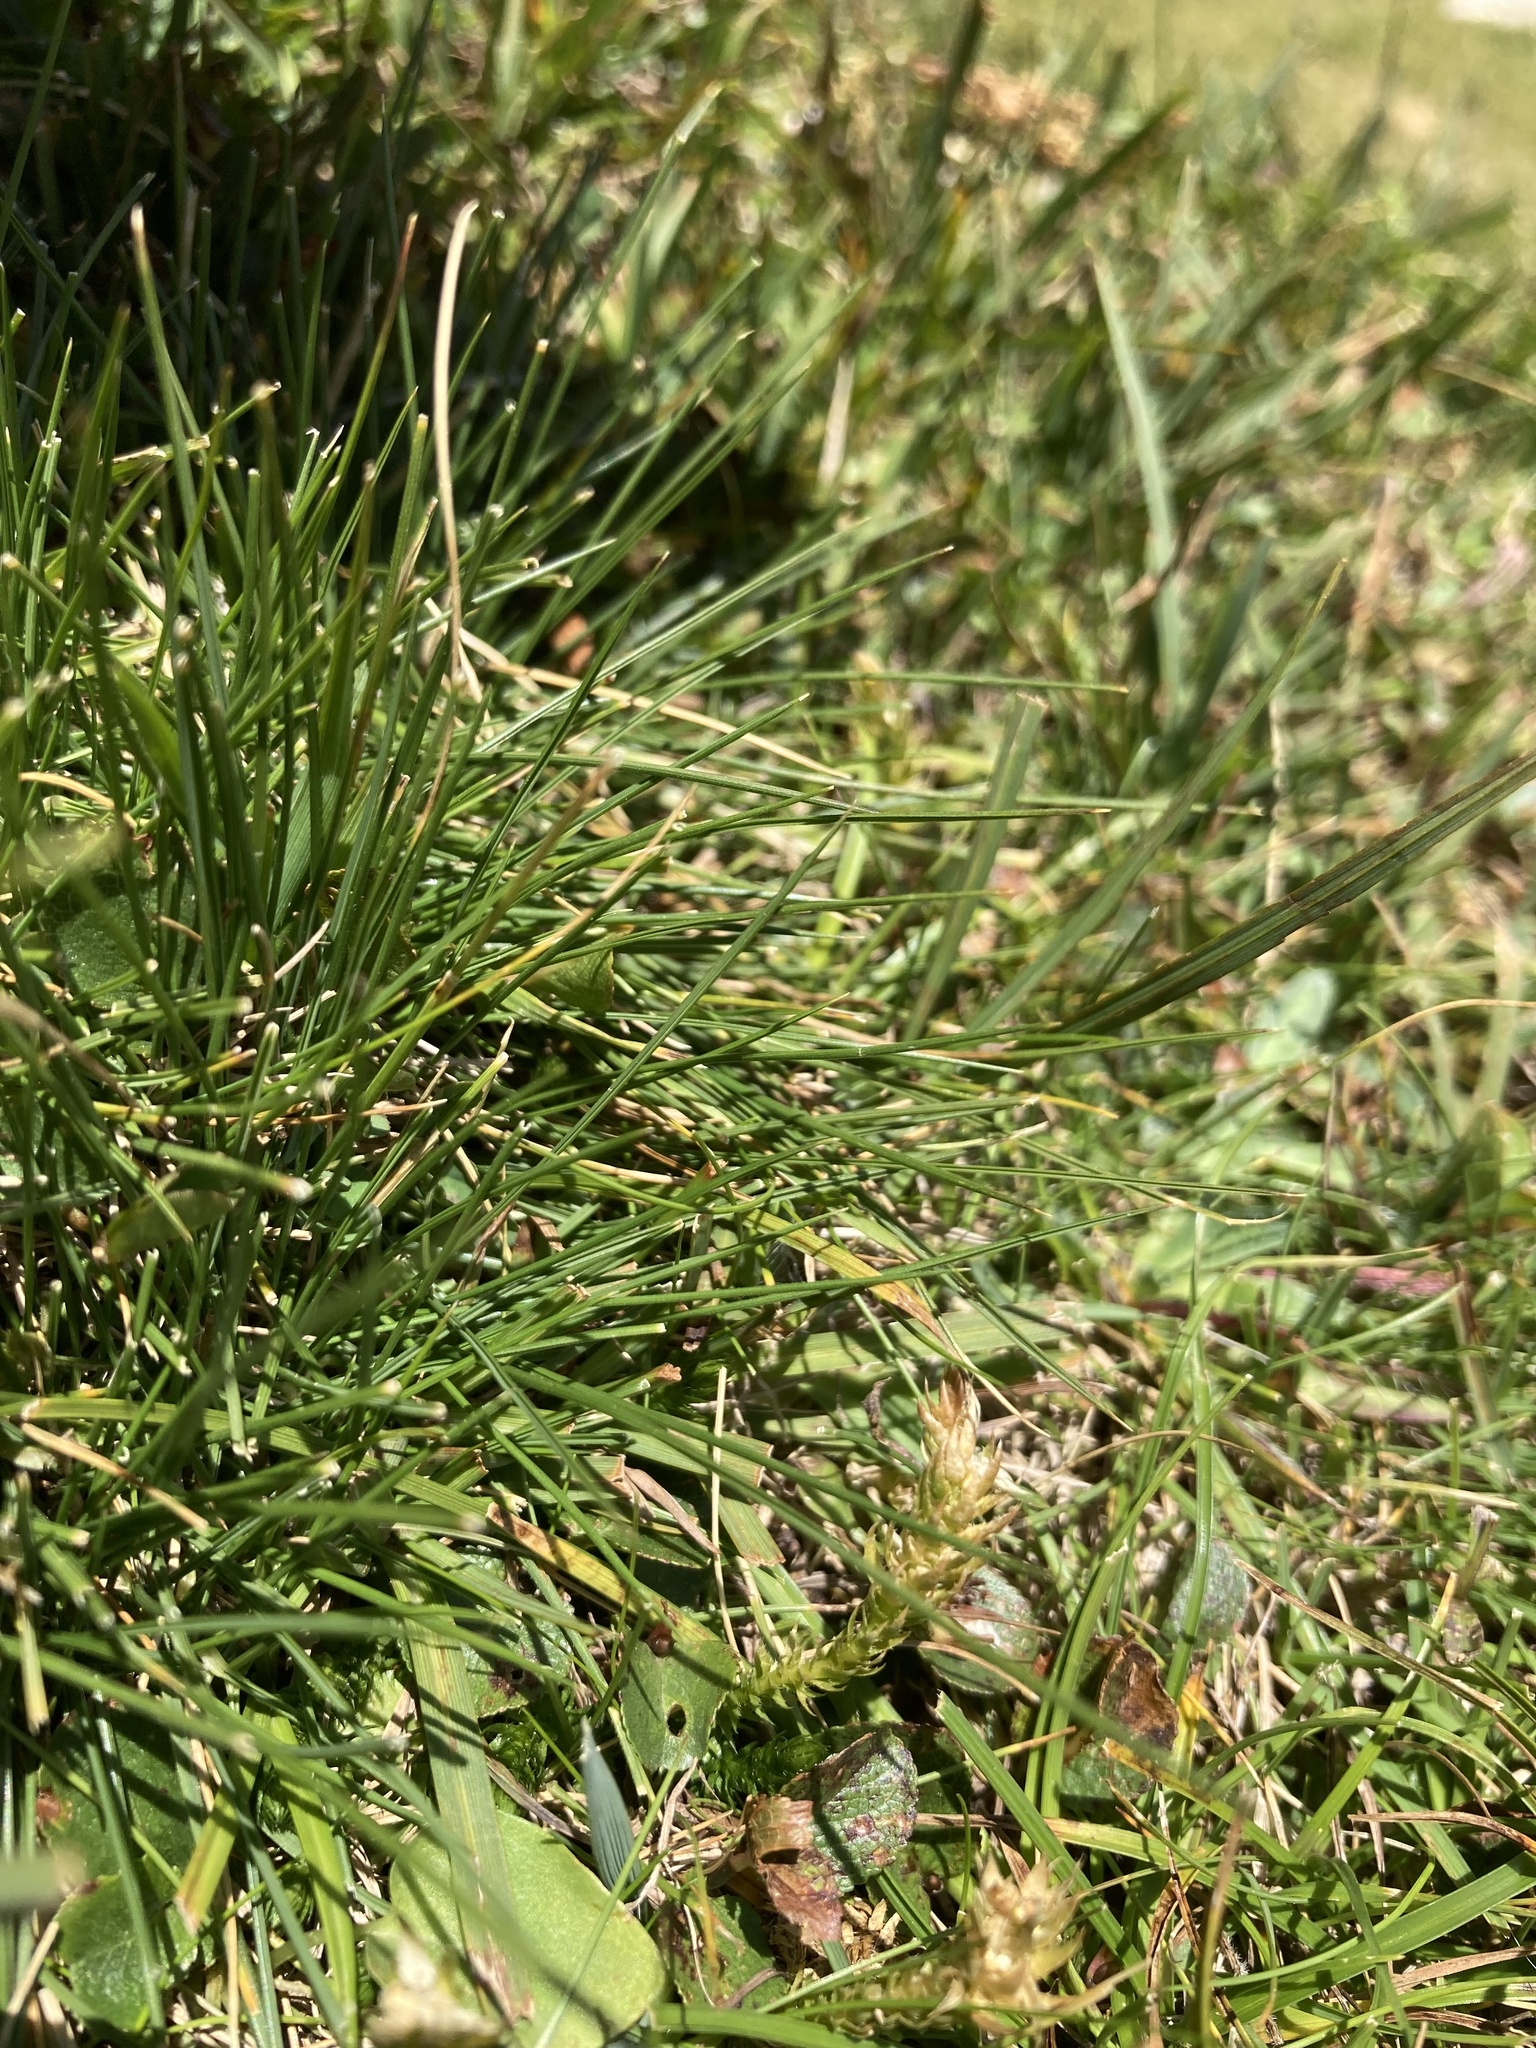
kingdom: Plantae
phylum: Tracheophyta
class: Lycopodiopsida
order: Selaginellales
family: Selaginellaceae
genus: Selaginella
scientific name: Selaginella selaginoides
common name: Prickly mountain-moss
